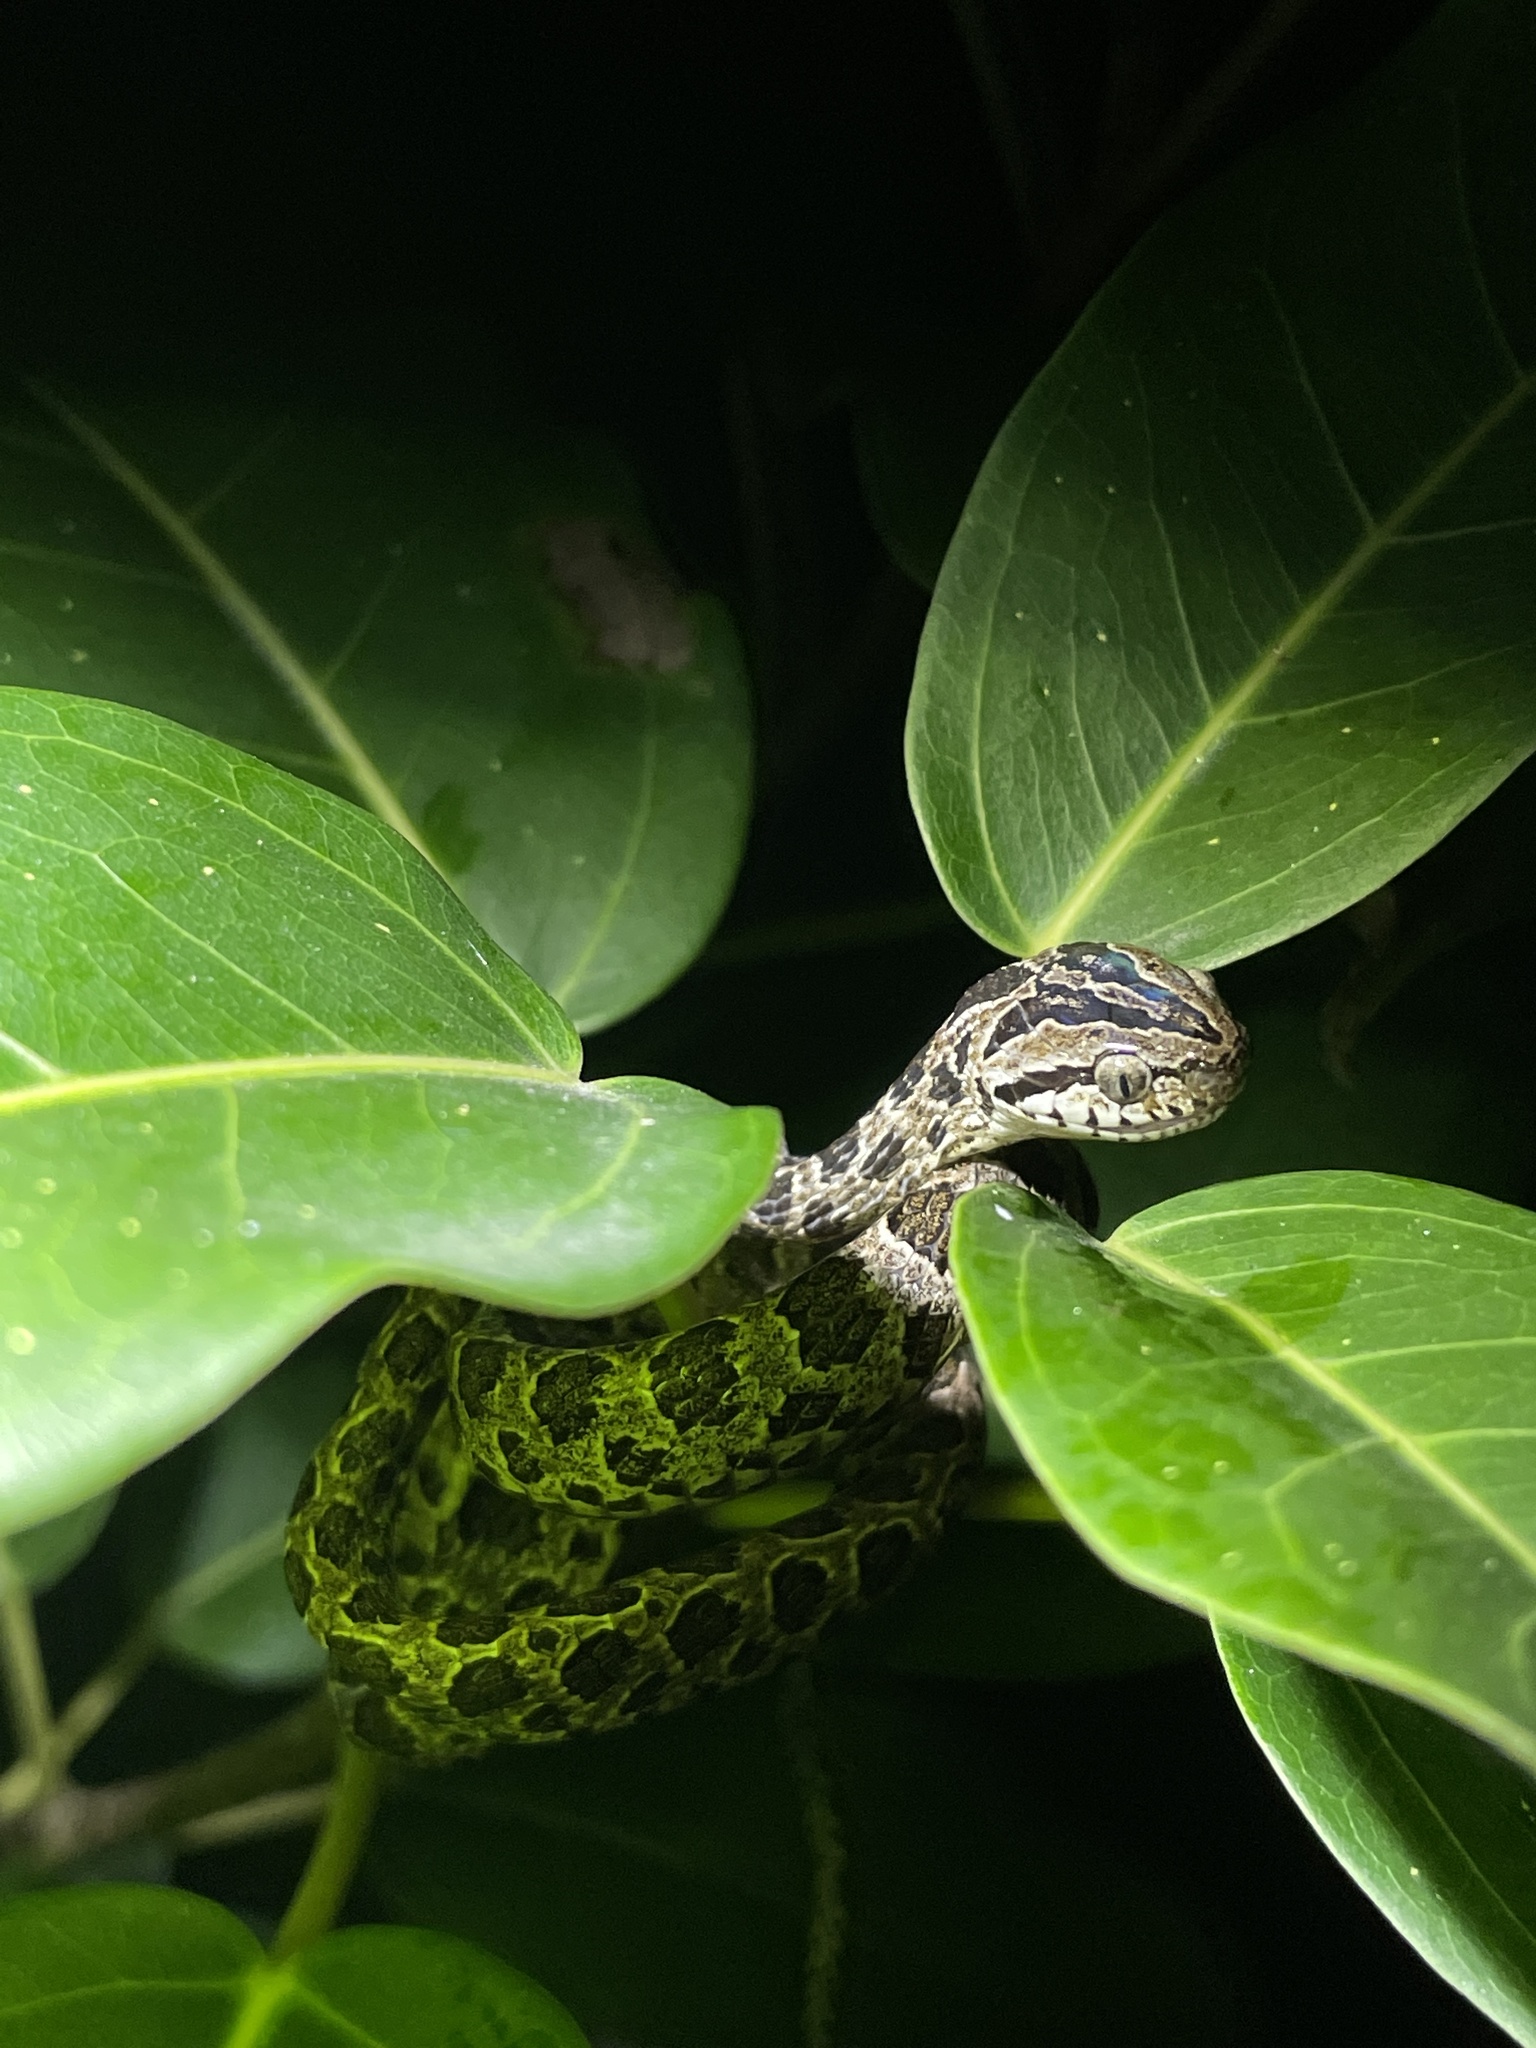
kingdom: Animalia
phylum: Chordata
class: Squamata
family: Colubridae
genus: Boiga
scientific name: Boiga multomaculata
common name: Many-spotted cat snake
